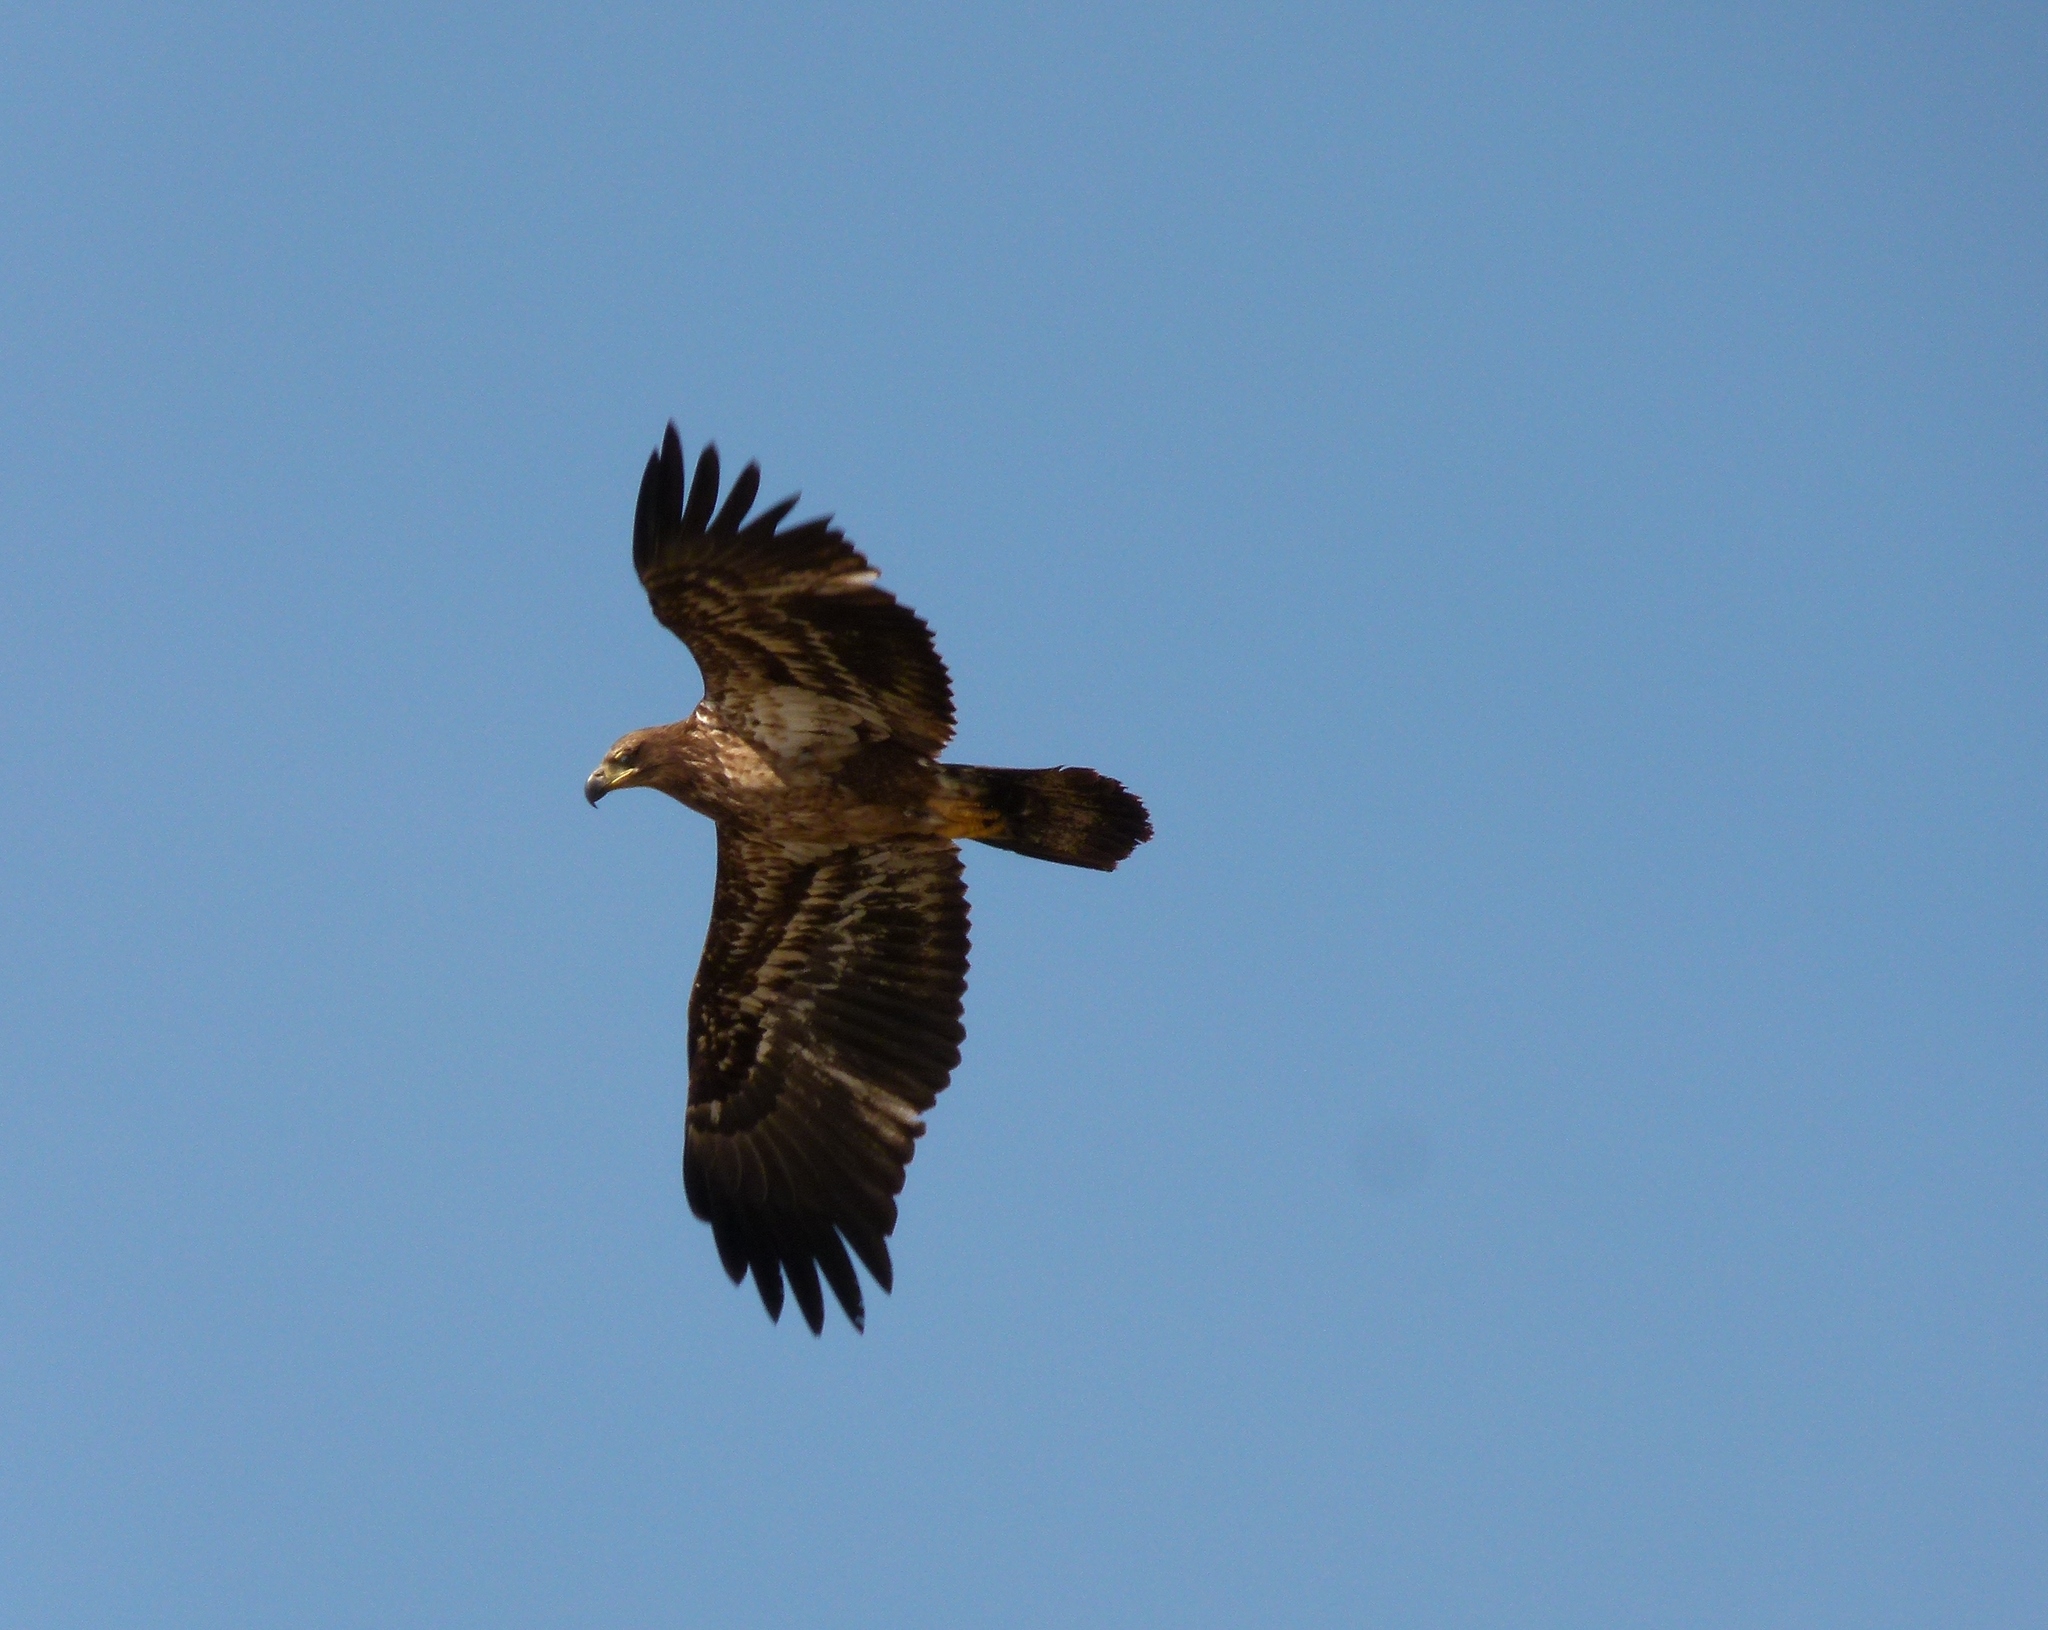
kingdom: Animalia
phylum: Chordata
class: Aves
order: Accipitriformes
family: Accipitridae
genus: Haliaeetus
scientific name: Haliaeetus leucocephalus
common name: Bald eagle
